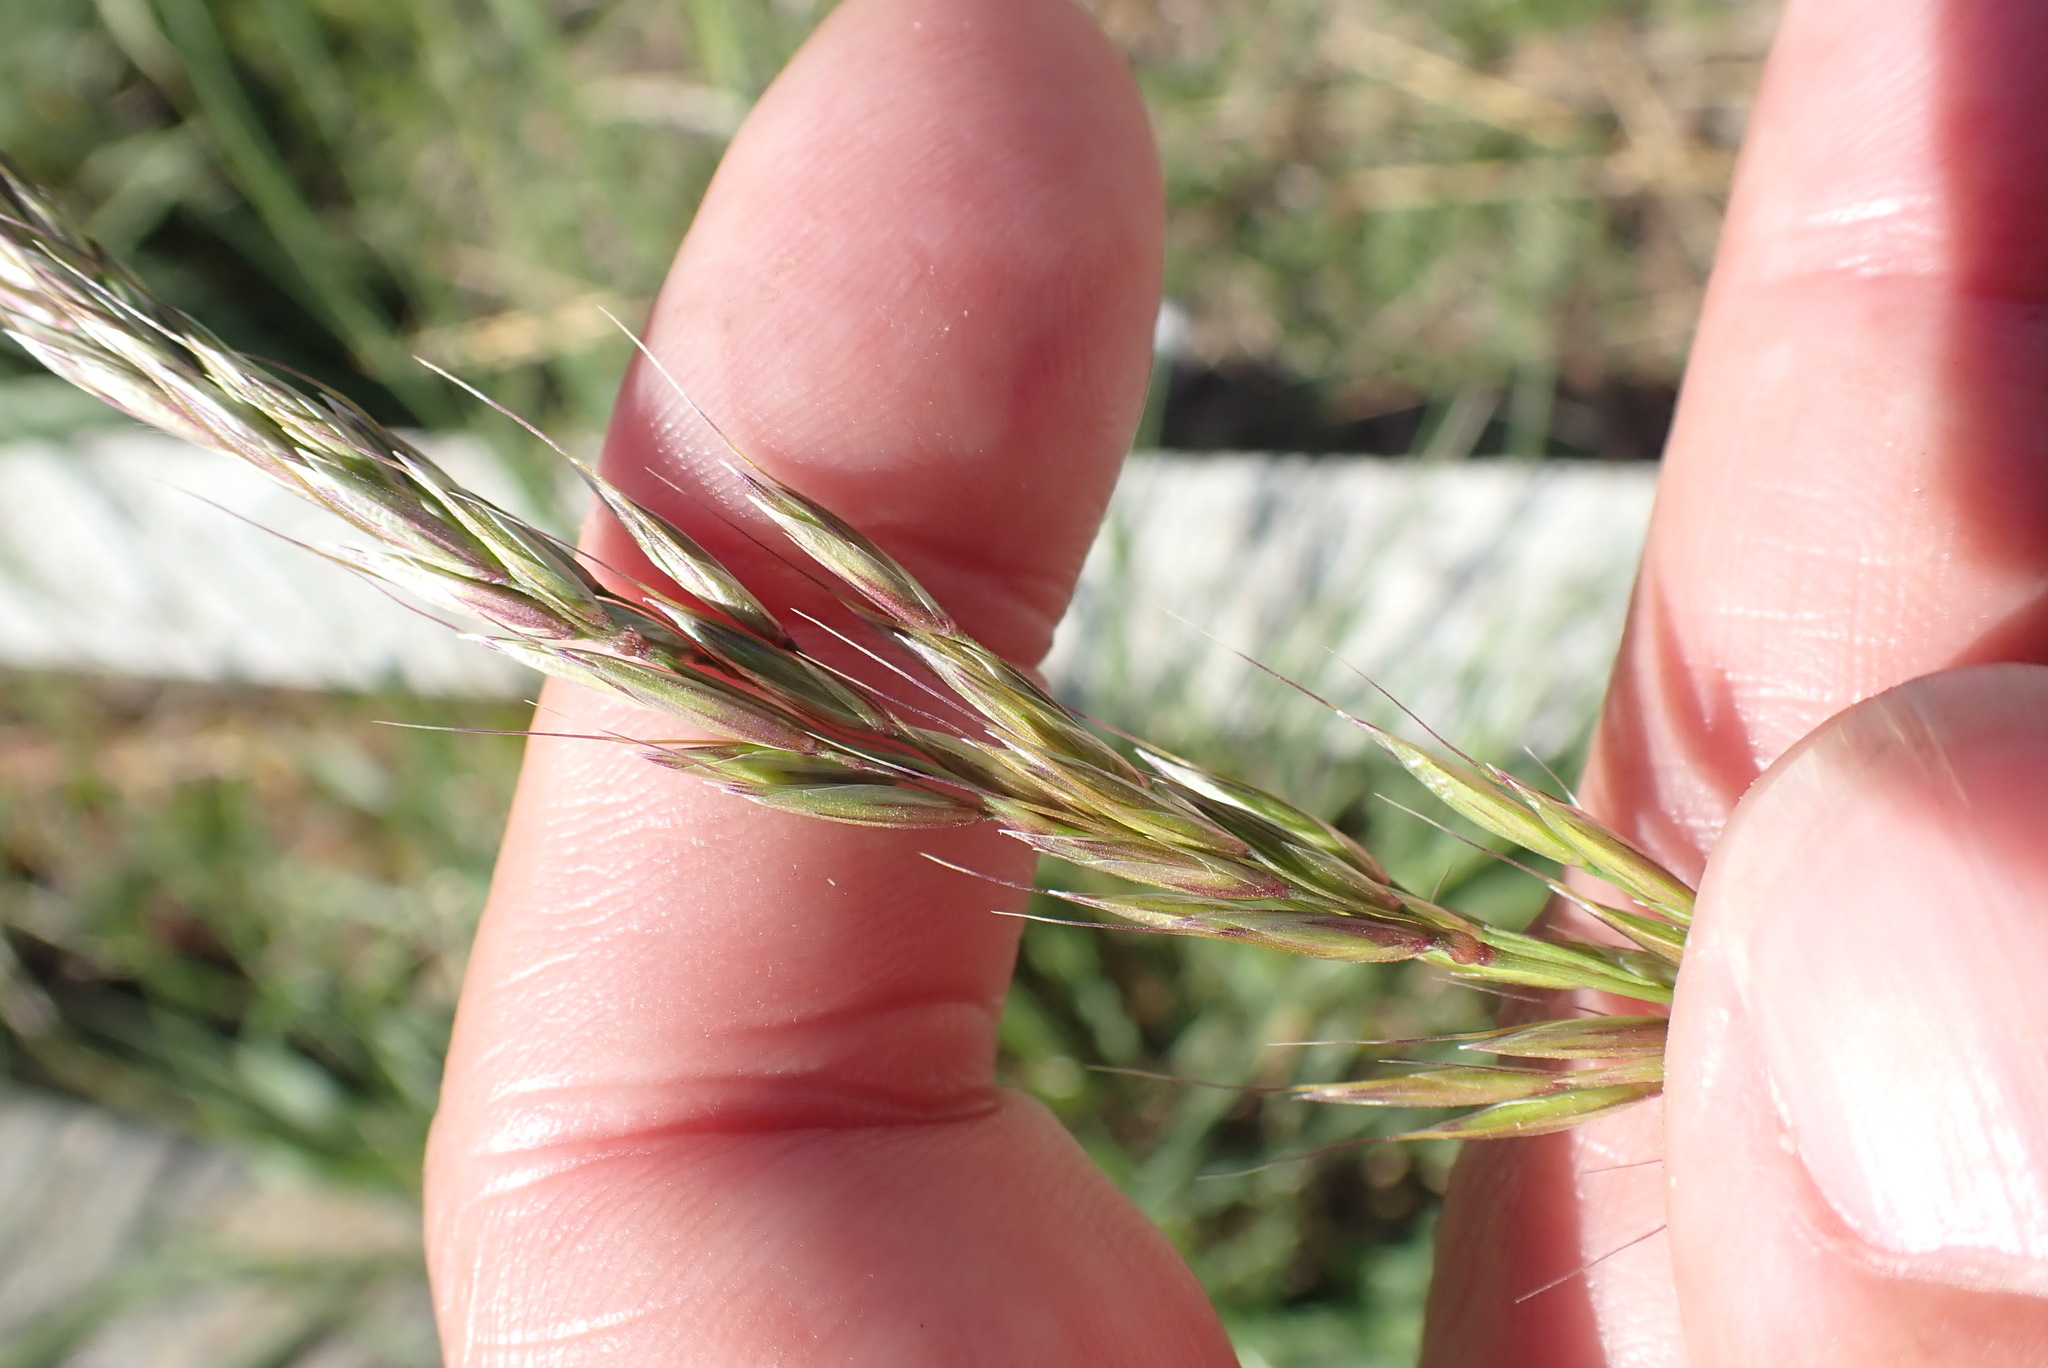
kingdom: Plantae
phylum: Tracheophyta
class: Liliopsida
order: Poales
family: Poaceae
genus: Arrhenatherum
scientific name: Arrhenatherum elatius
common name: Tall oatgrass
